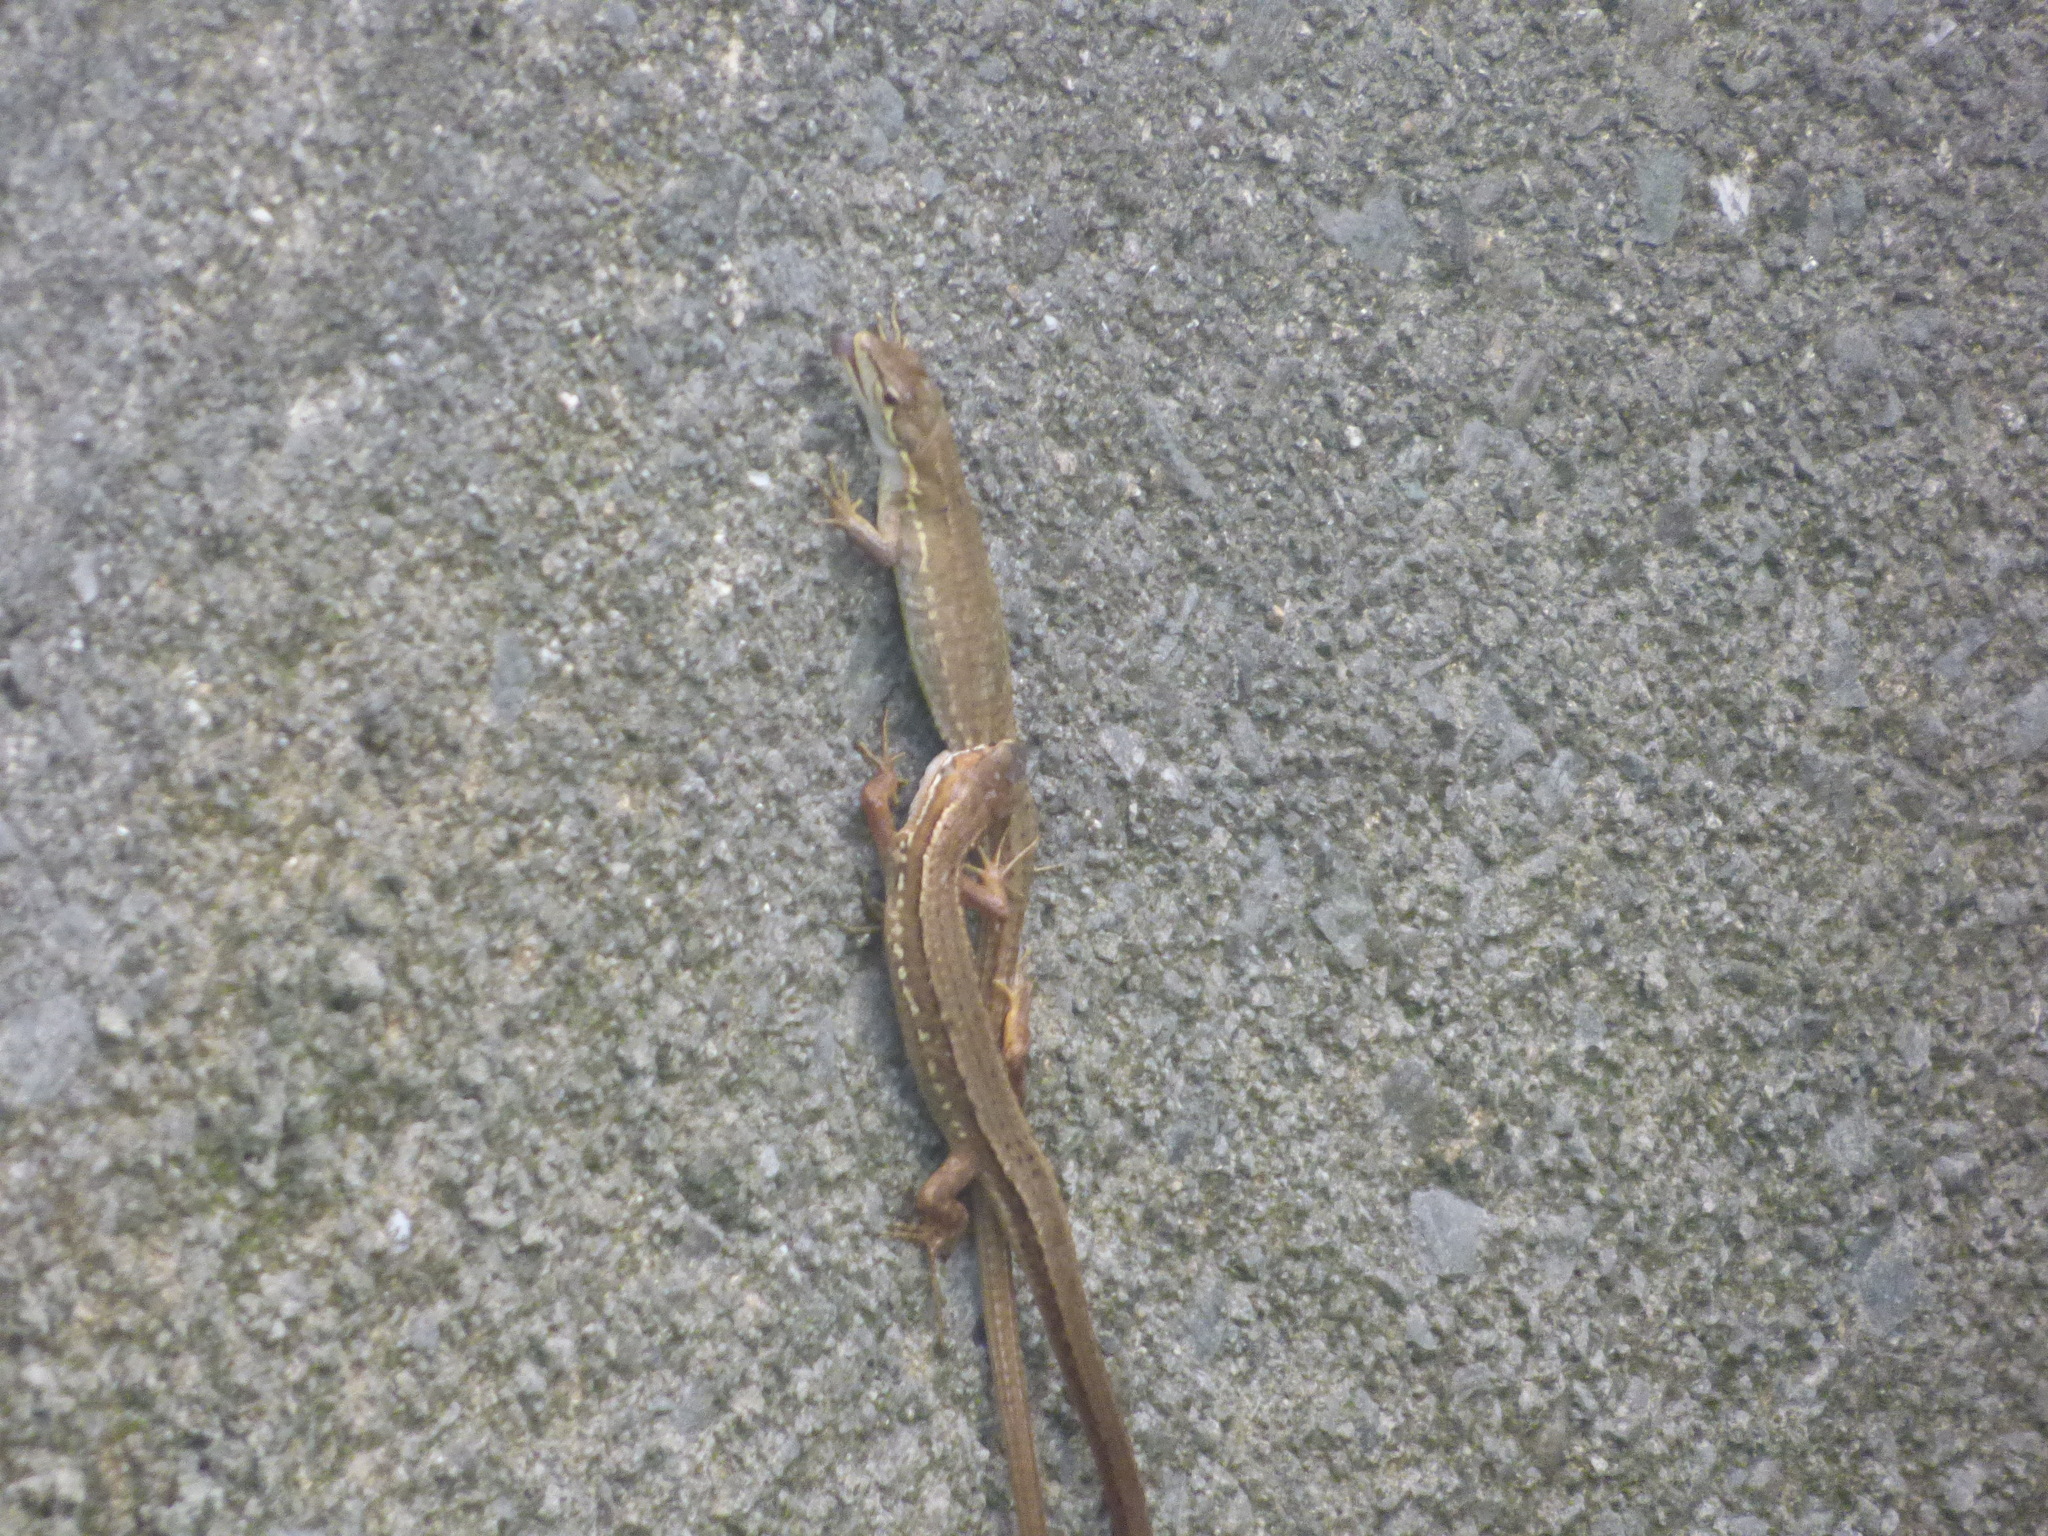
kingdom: Animalia
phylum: Chordata
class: Squamata
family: Lacertidae
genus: Takydromus
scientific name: Takydromus tachydromoides
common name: Japanese grass lizard
